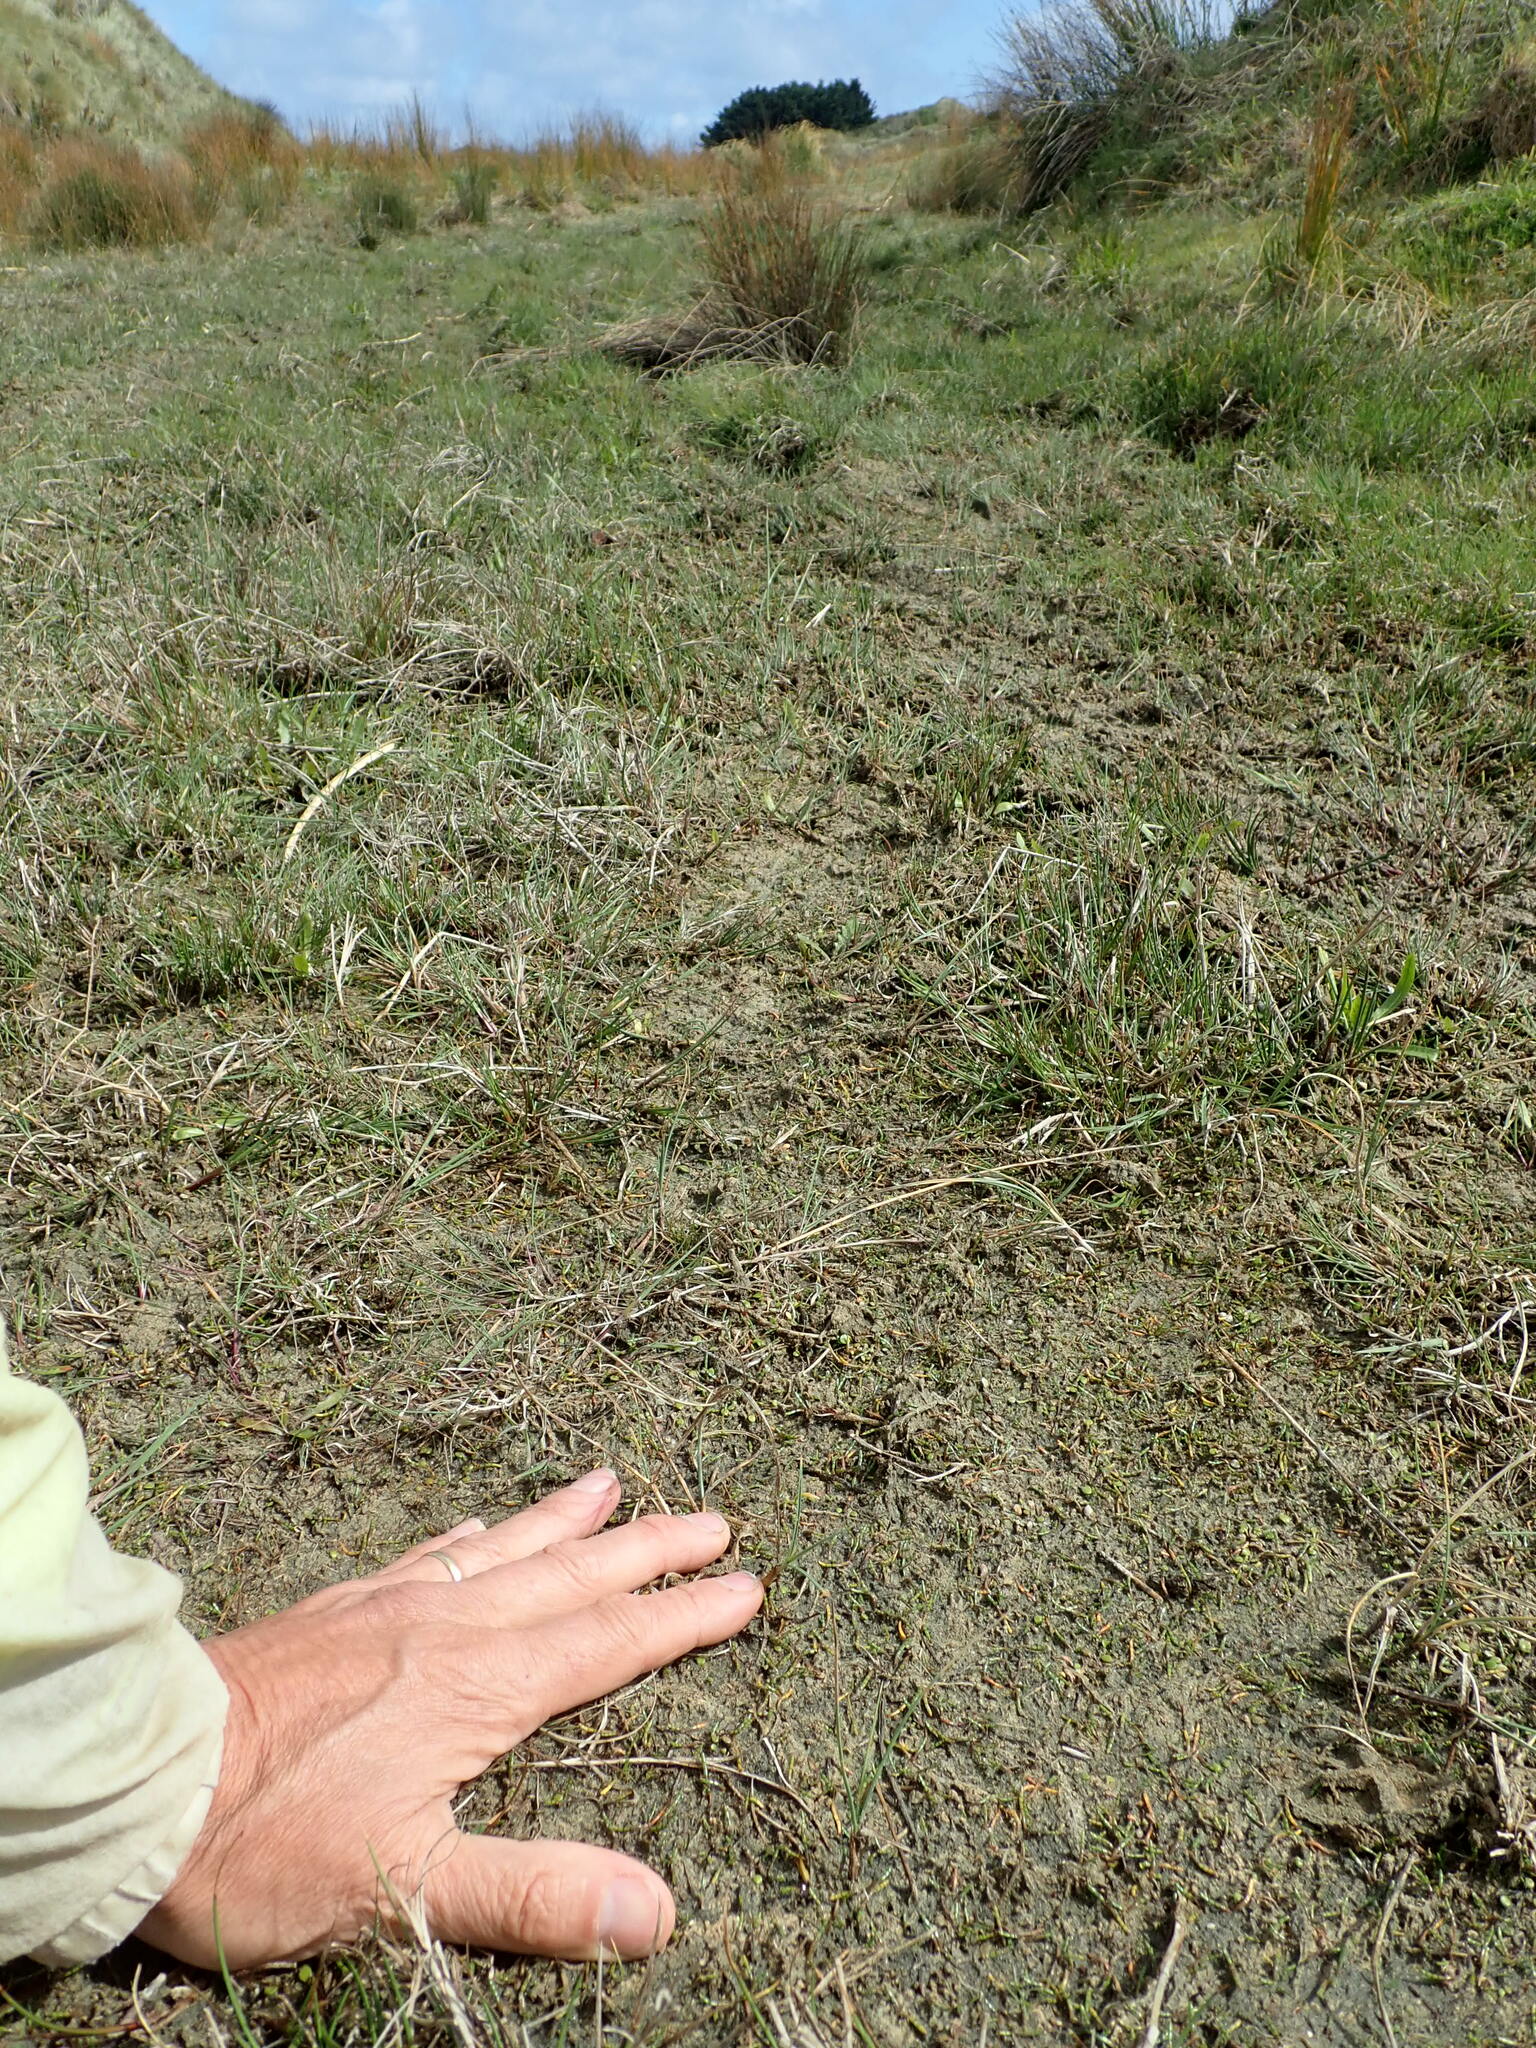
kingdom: Plantae
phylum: Tracheophyta
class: Magnoliopsida
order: Apiales
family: Apiaceae
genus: Lilaeopsis
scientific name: Lilaeopsis novae-zelandiae
